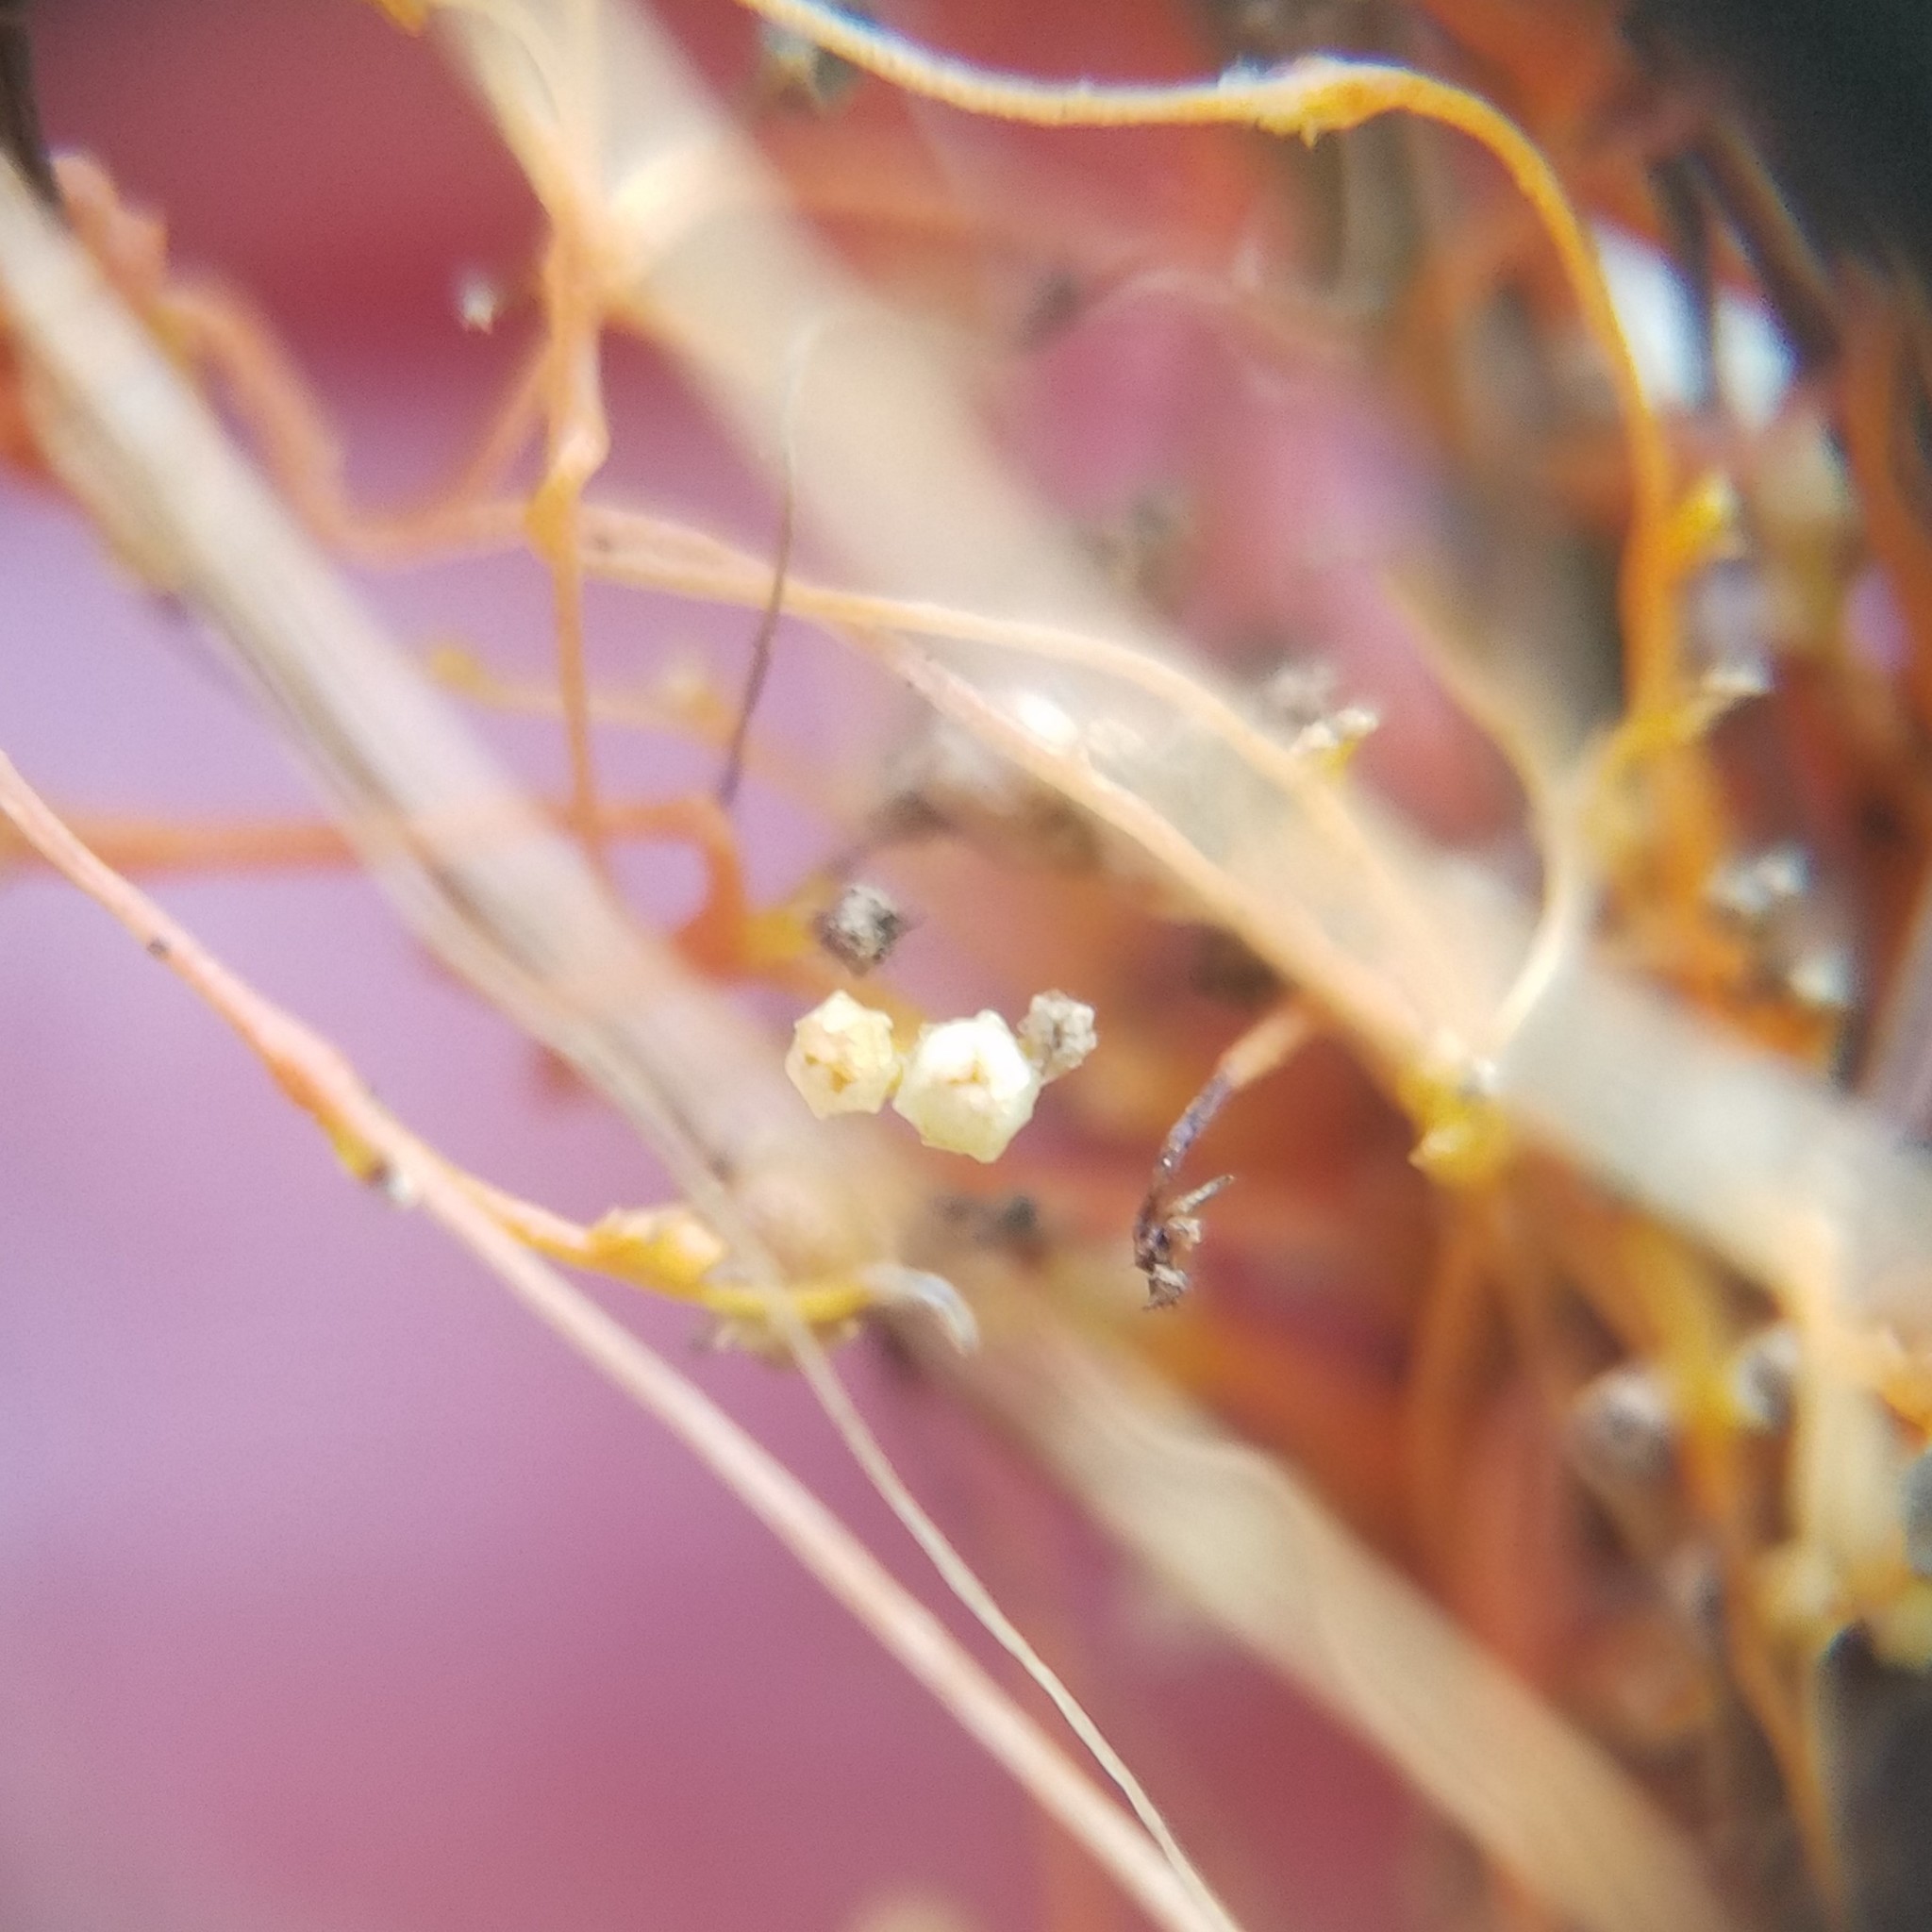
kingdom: Plantae
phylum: Tracheophyta
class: Magnoliopsida
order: Solanales
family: Convolvulaceae
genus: Cuscuta
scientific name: Cuscuta harperi
